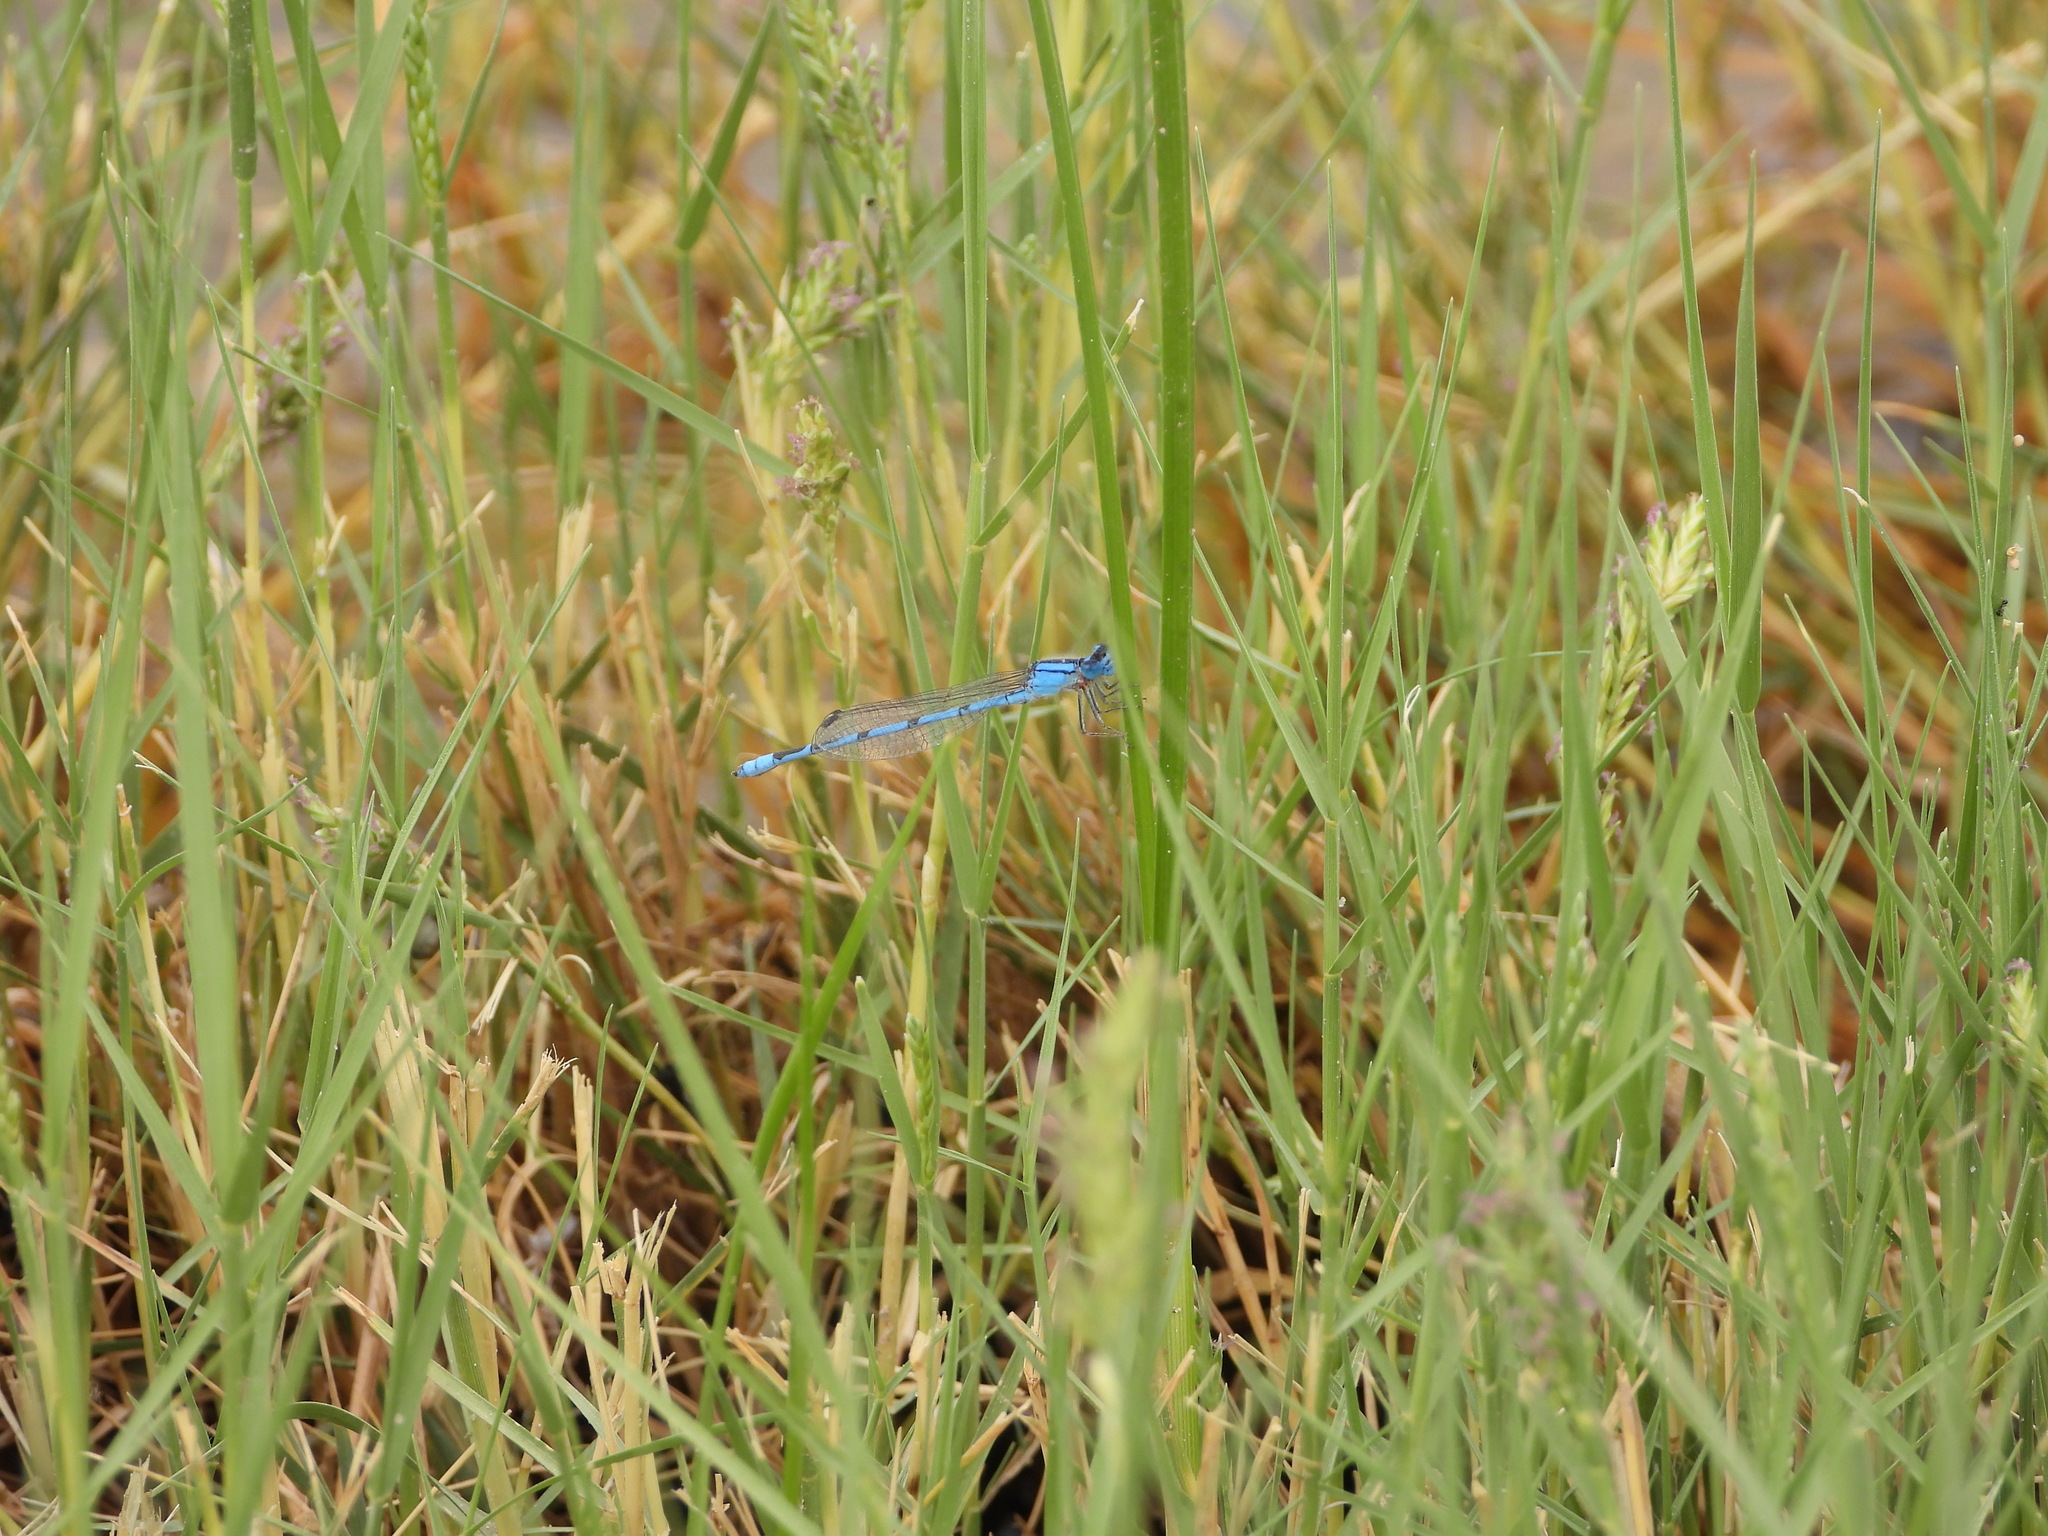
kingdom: Animalia
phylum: Arthropoda
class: Insecta
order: Odonata
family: Coenagrionidae
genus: Enallagma
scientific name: Enallagma civile
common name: Damselfly
